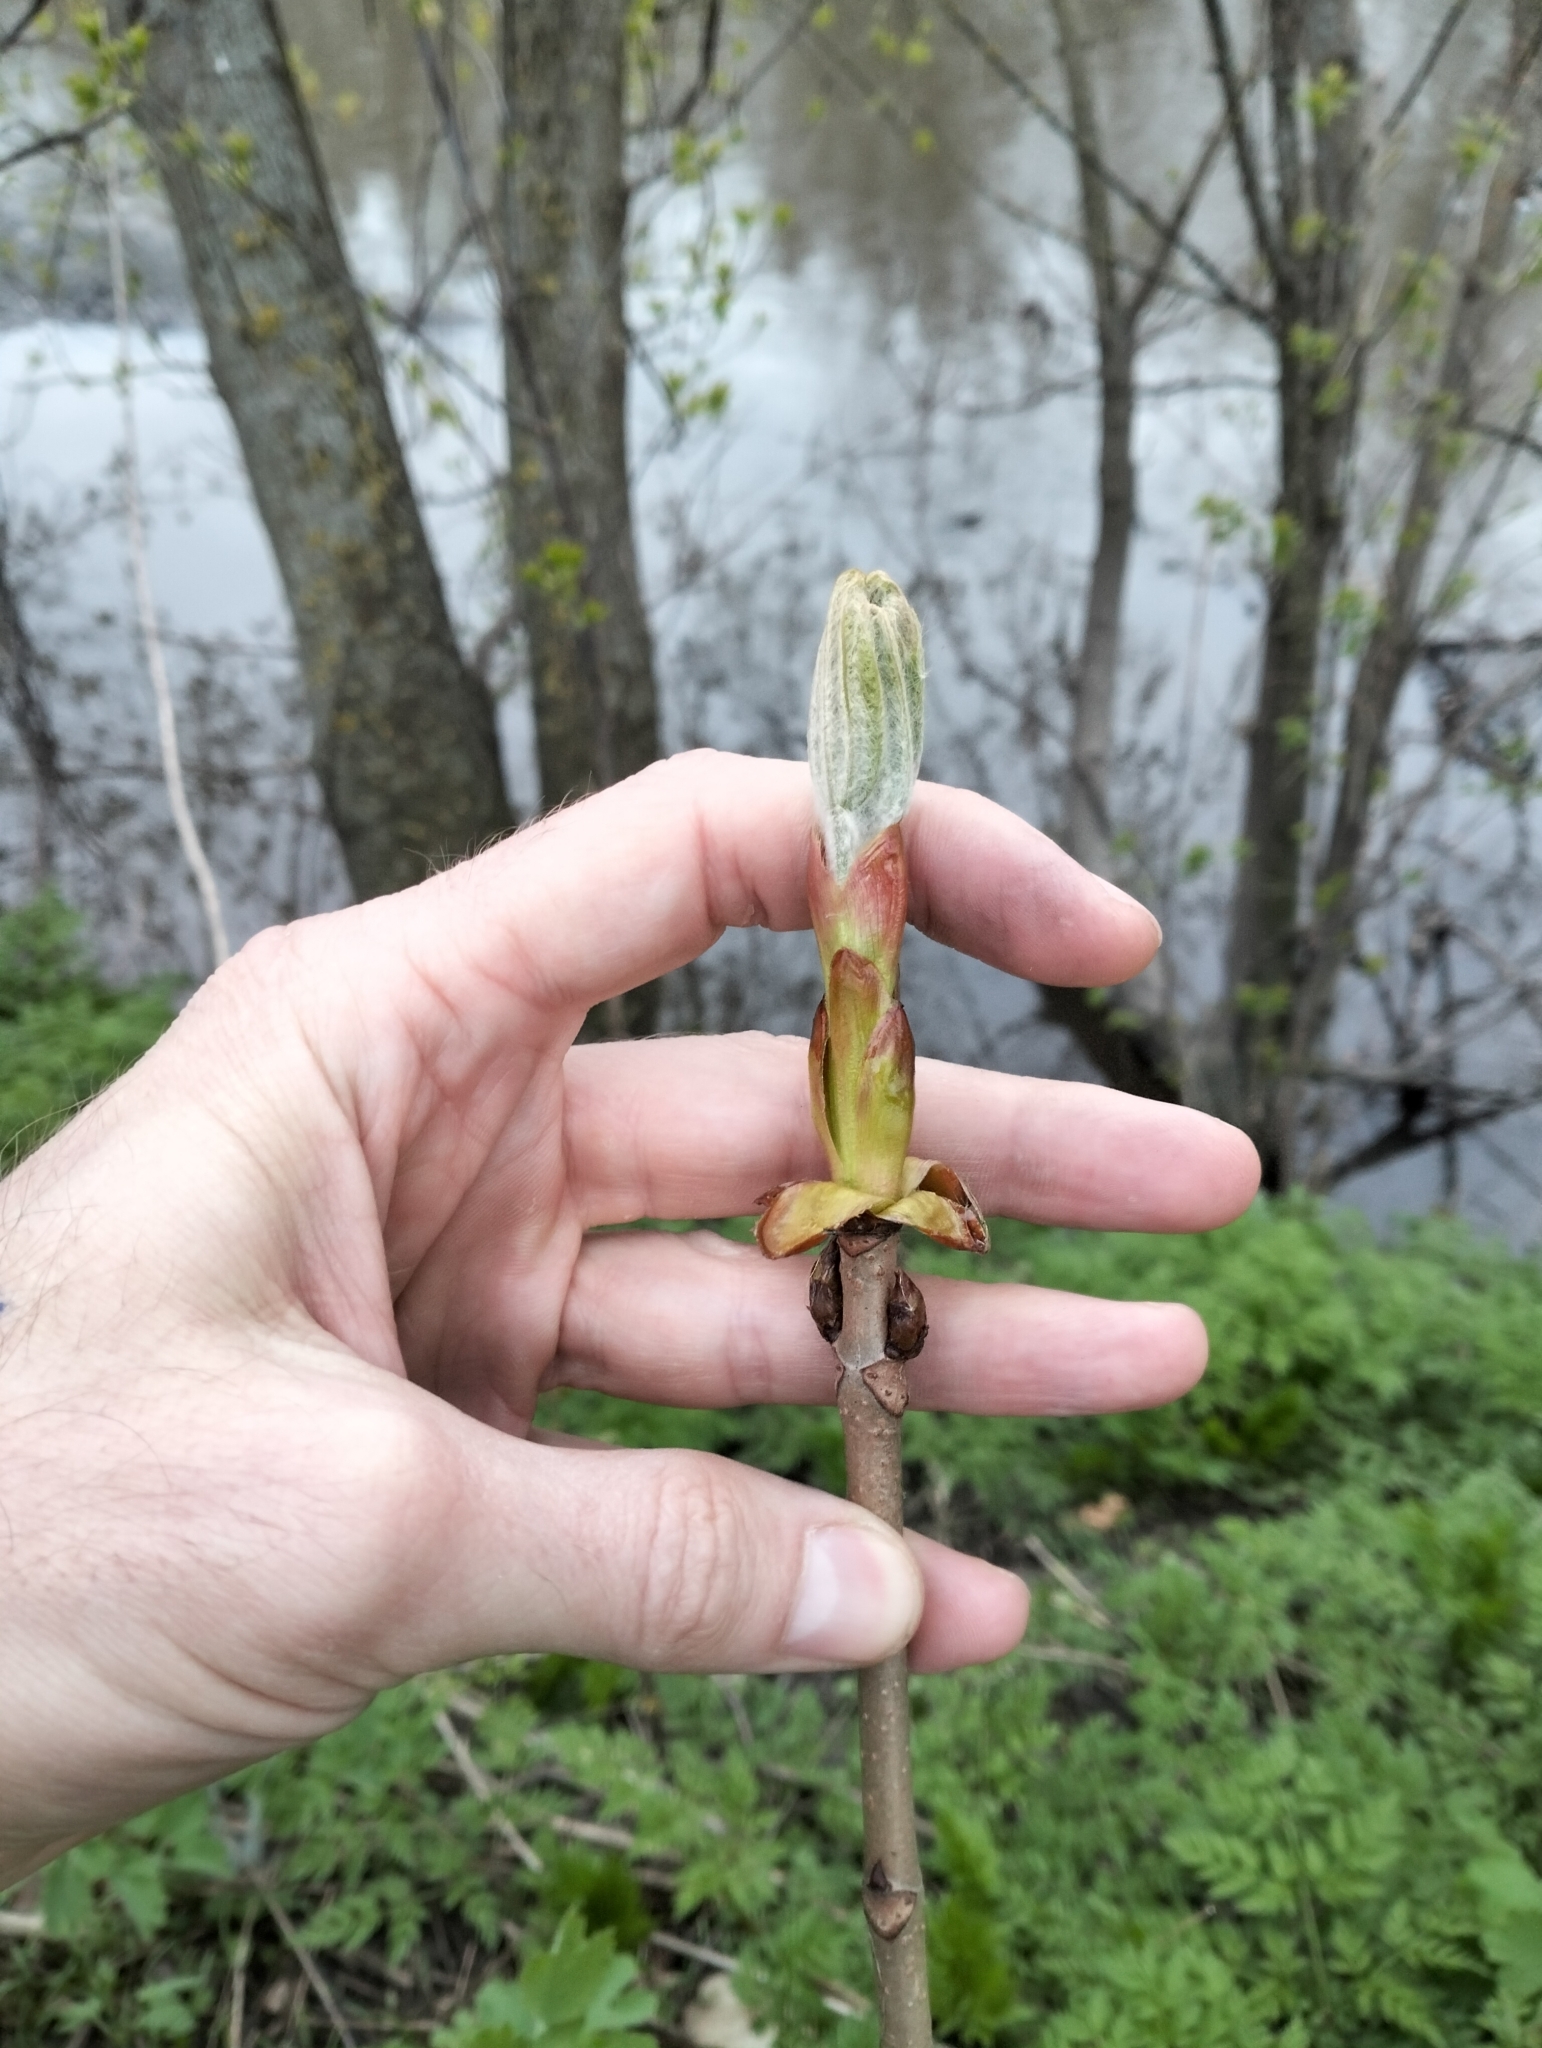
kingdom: Plantae
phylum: Tracheophyta
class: Magnoliopsida
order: Sapindales
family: Sapindaceae
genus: Aesculus
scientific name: Aesculus hippocastanum
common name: Horse-chestnut
